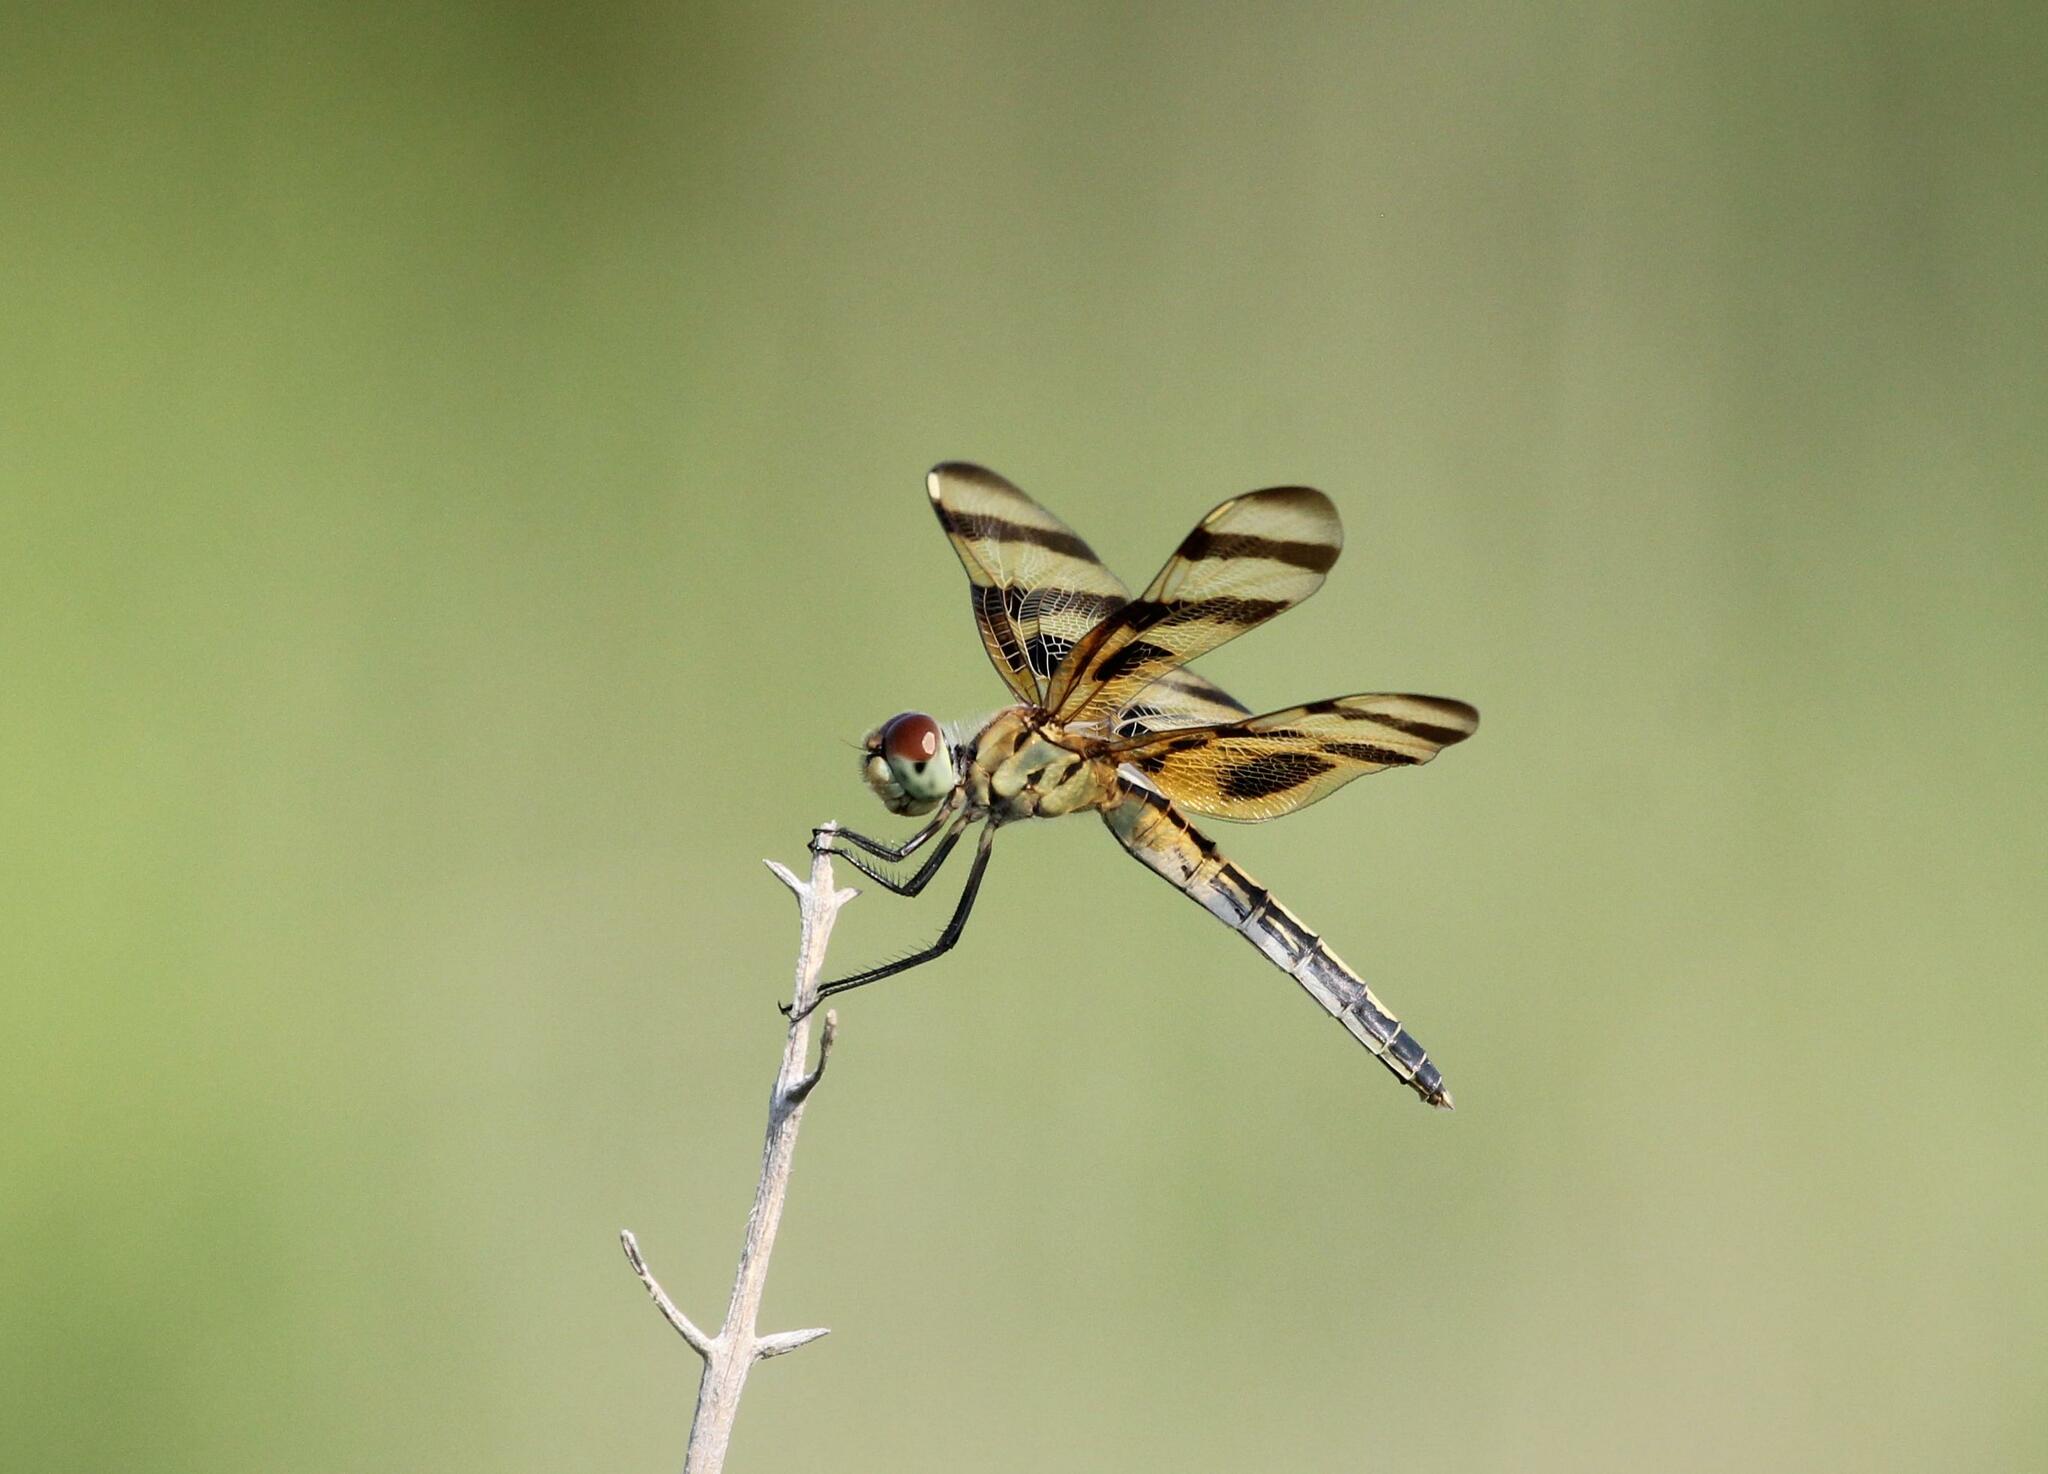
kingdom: Animalia
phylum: Arthropoda
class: Insecta
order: Odonata
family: Libellulidae
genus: Celithemis
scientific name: Celithemis eponina
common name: Halloween pennant
